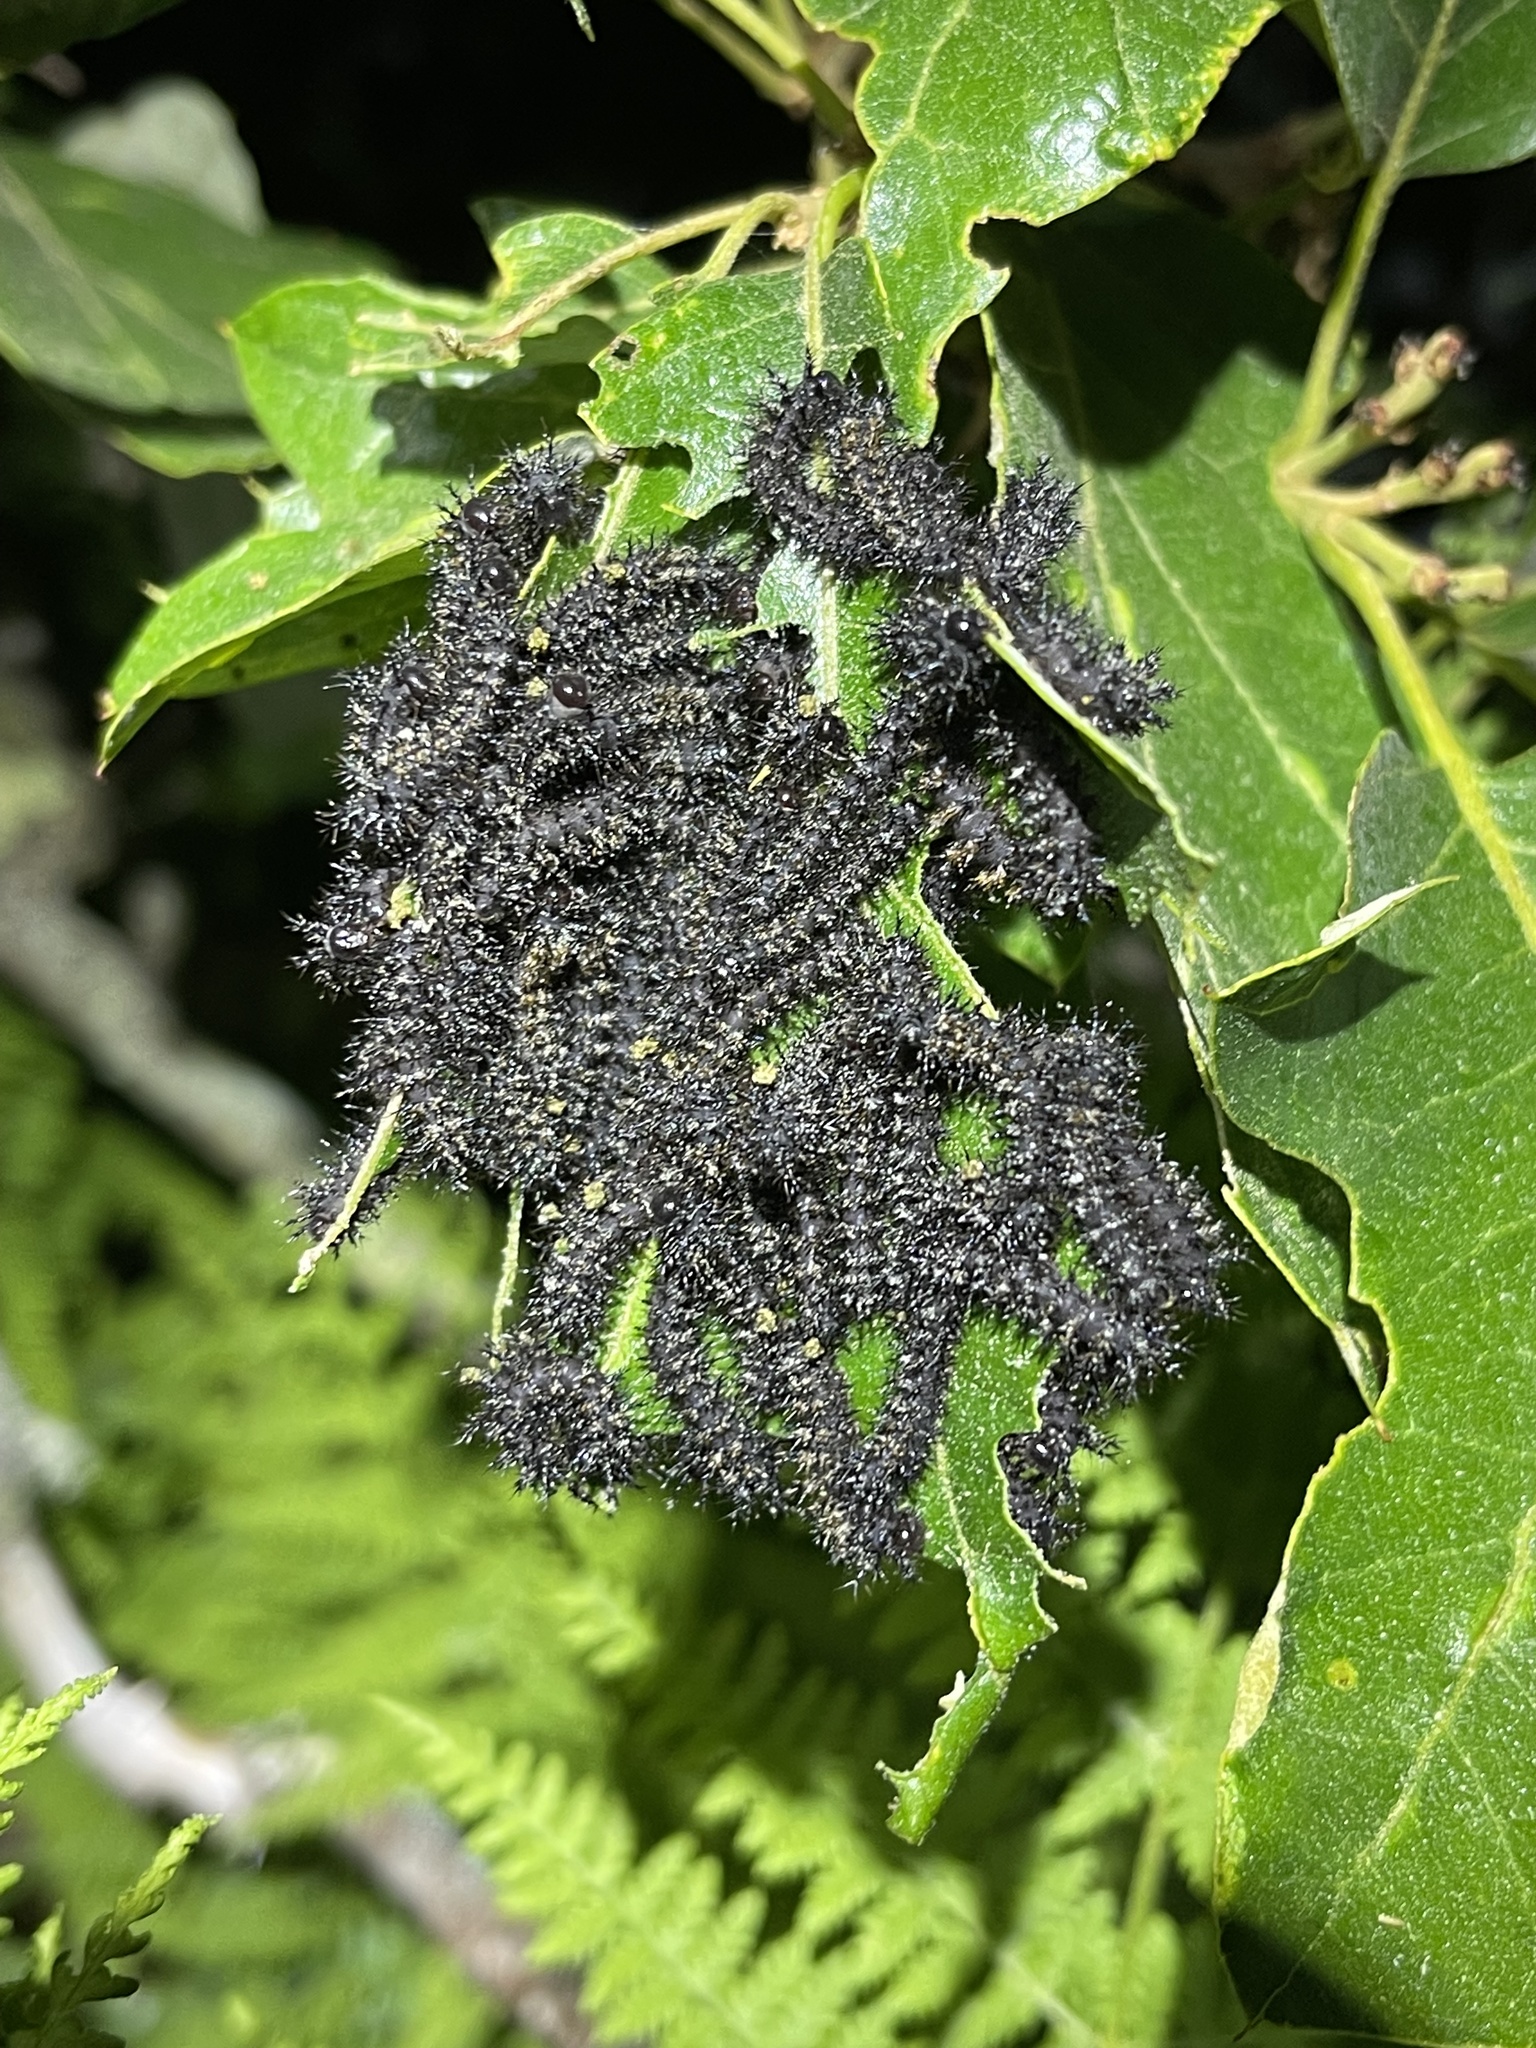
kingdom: Animalia
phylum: Arthropoda
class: Insecta
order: Lepidoptera
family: Saturniidae
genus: Hemileuca
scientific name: Hemileuca maia
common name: Eastern buckmoth
